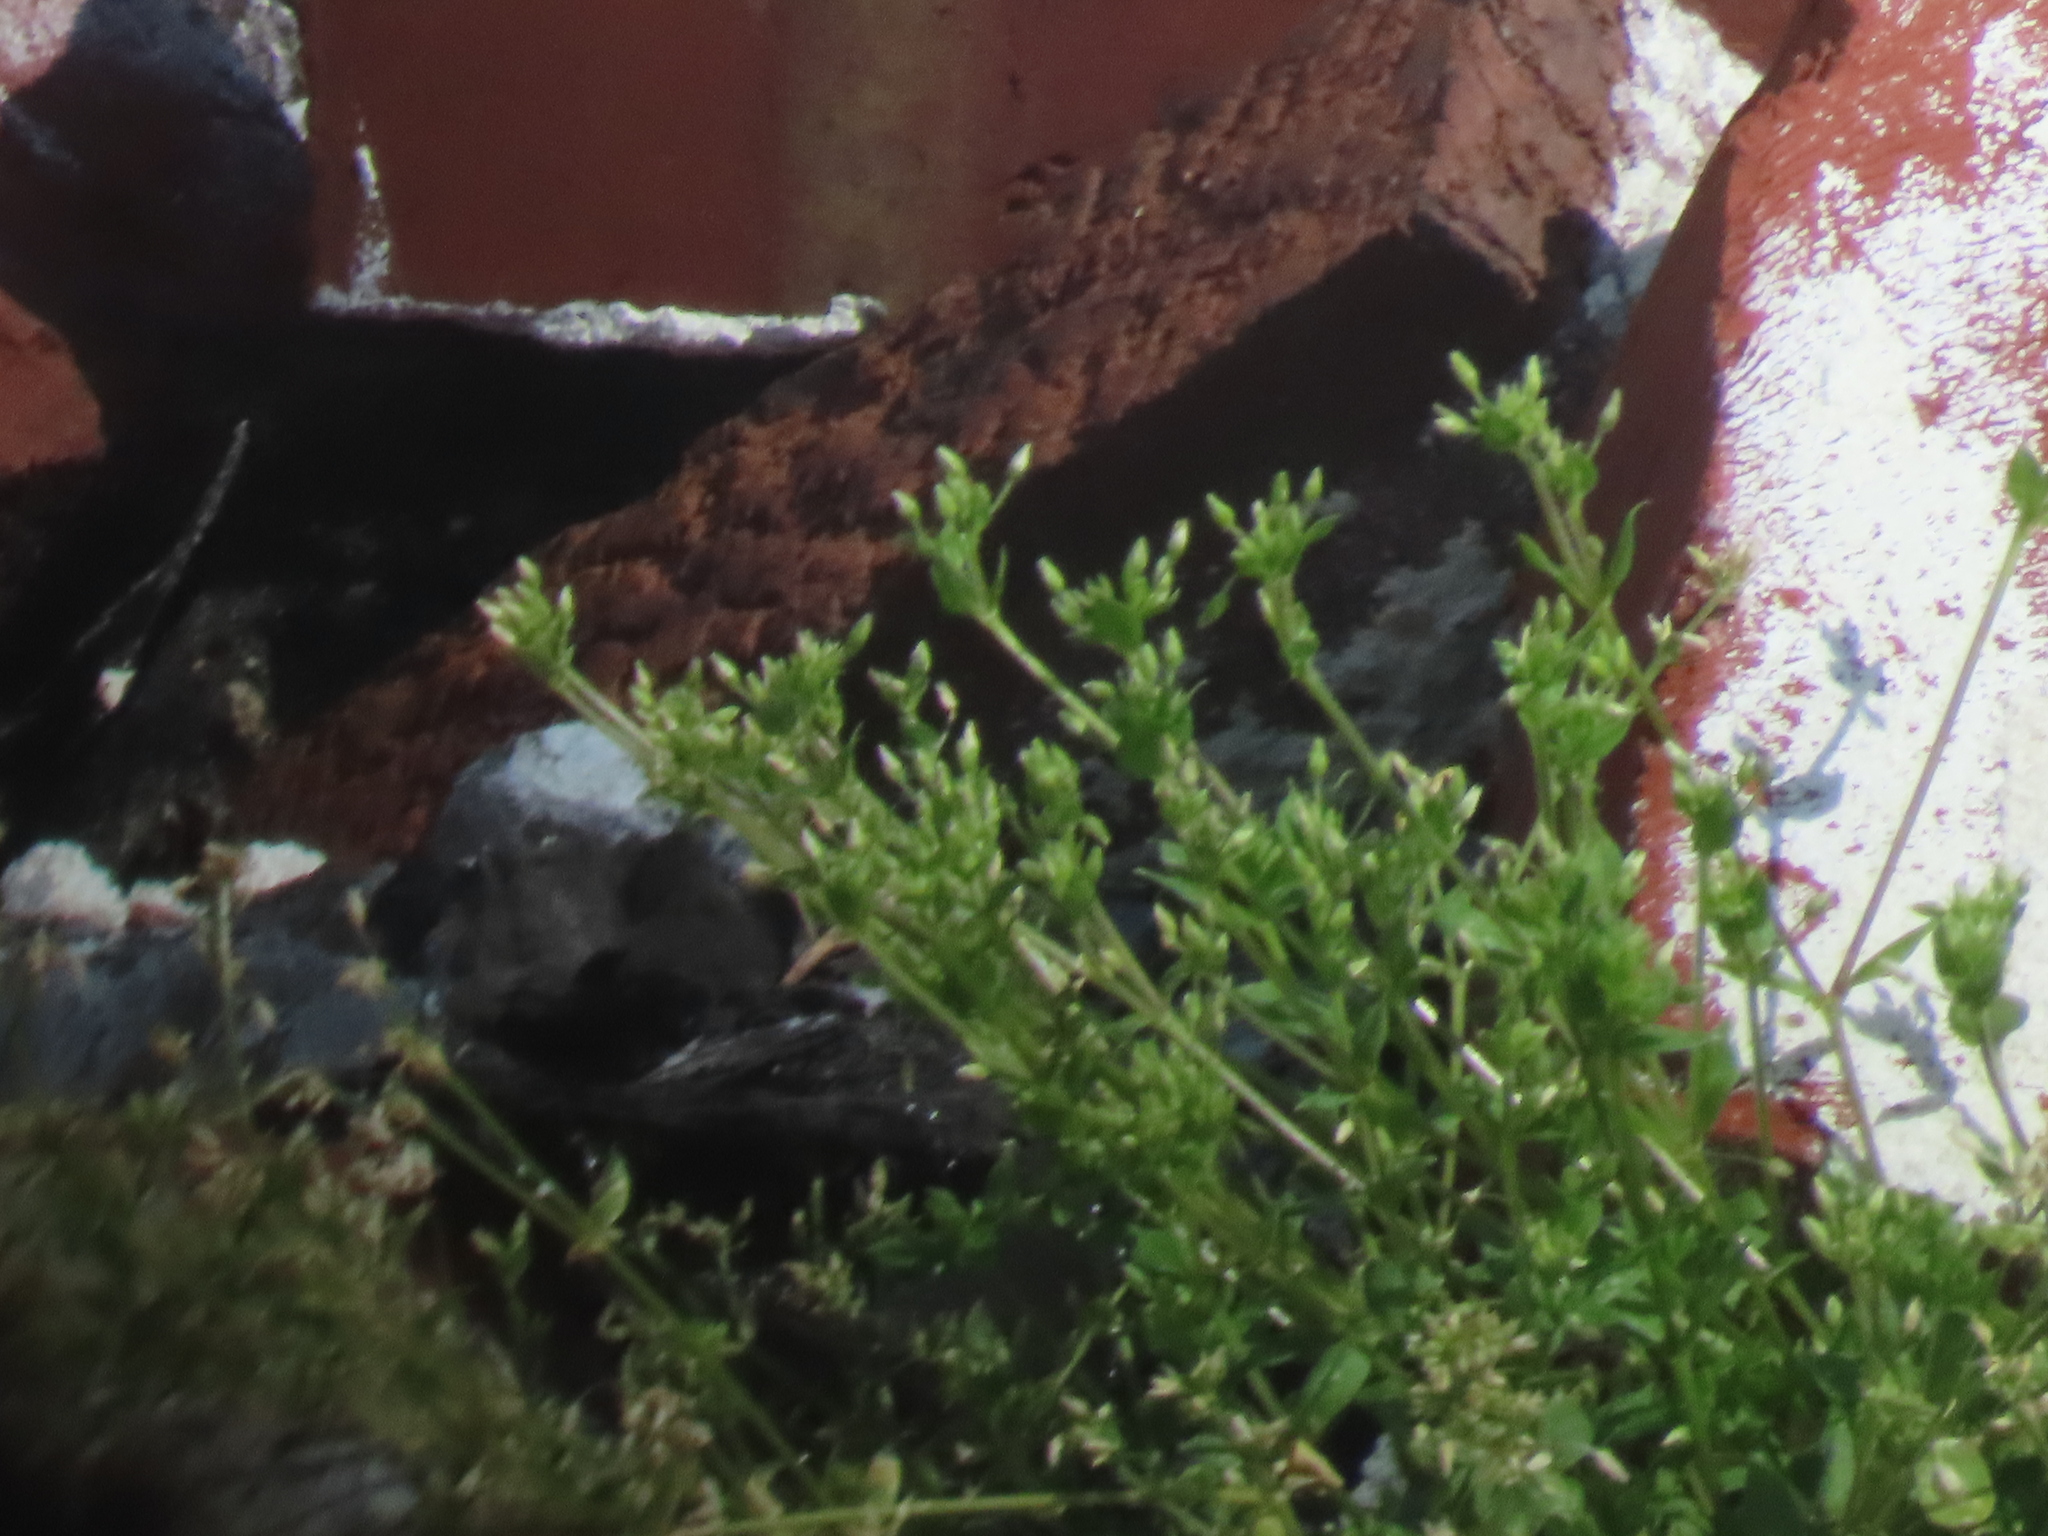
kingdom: Plantae
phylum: Tracheophyta
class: Magnoliopsida
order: Caryophyllales
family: Caryophyllaceae
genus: Cerastium
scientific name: Cerastium
